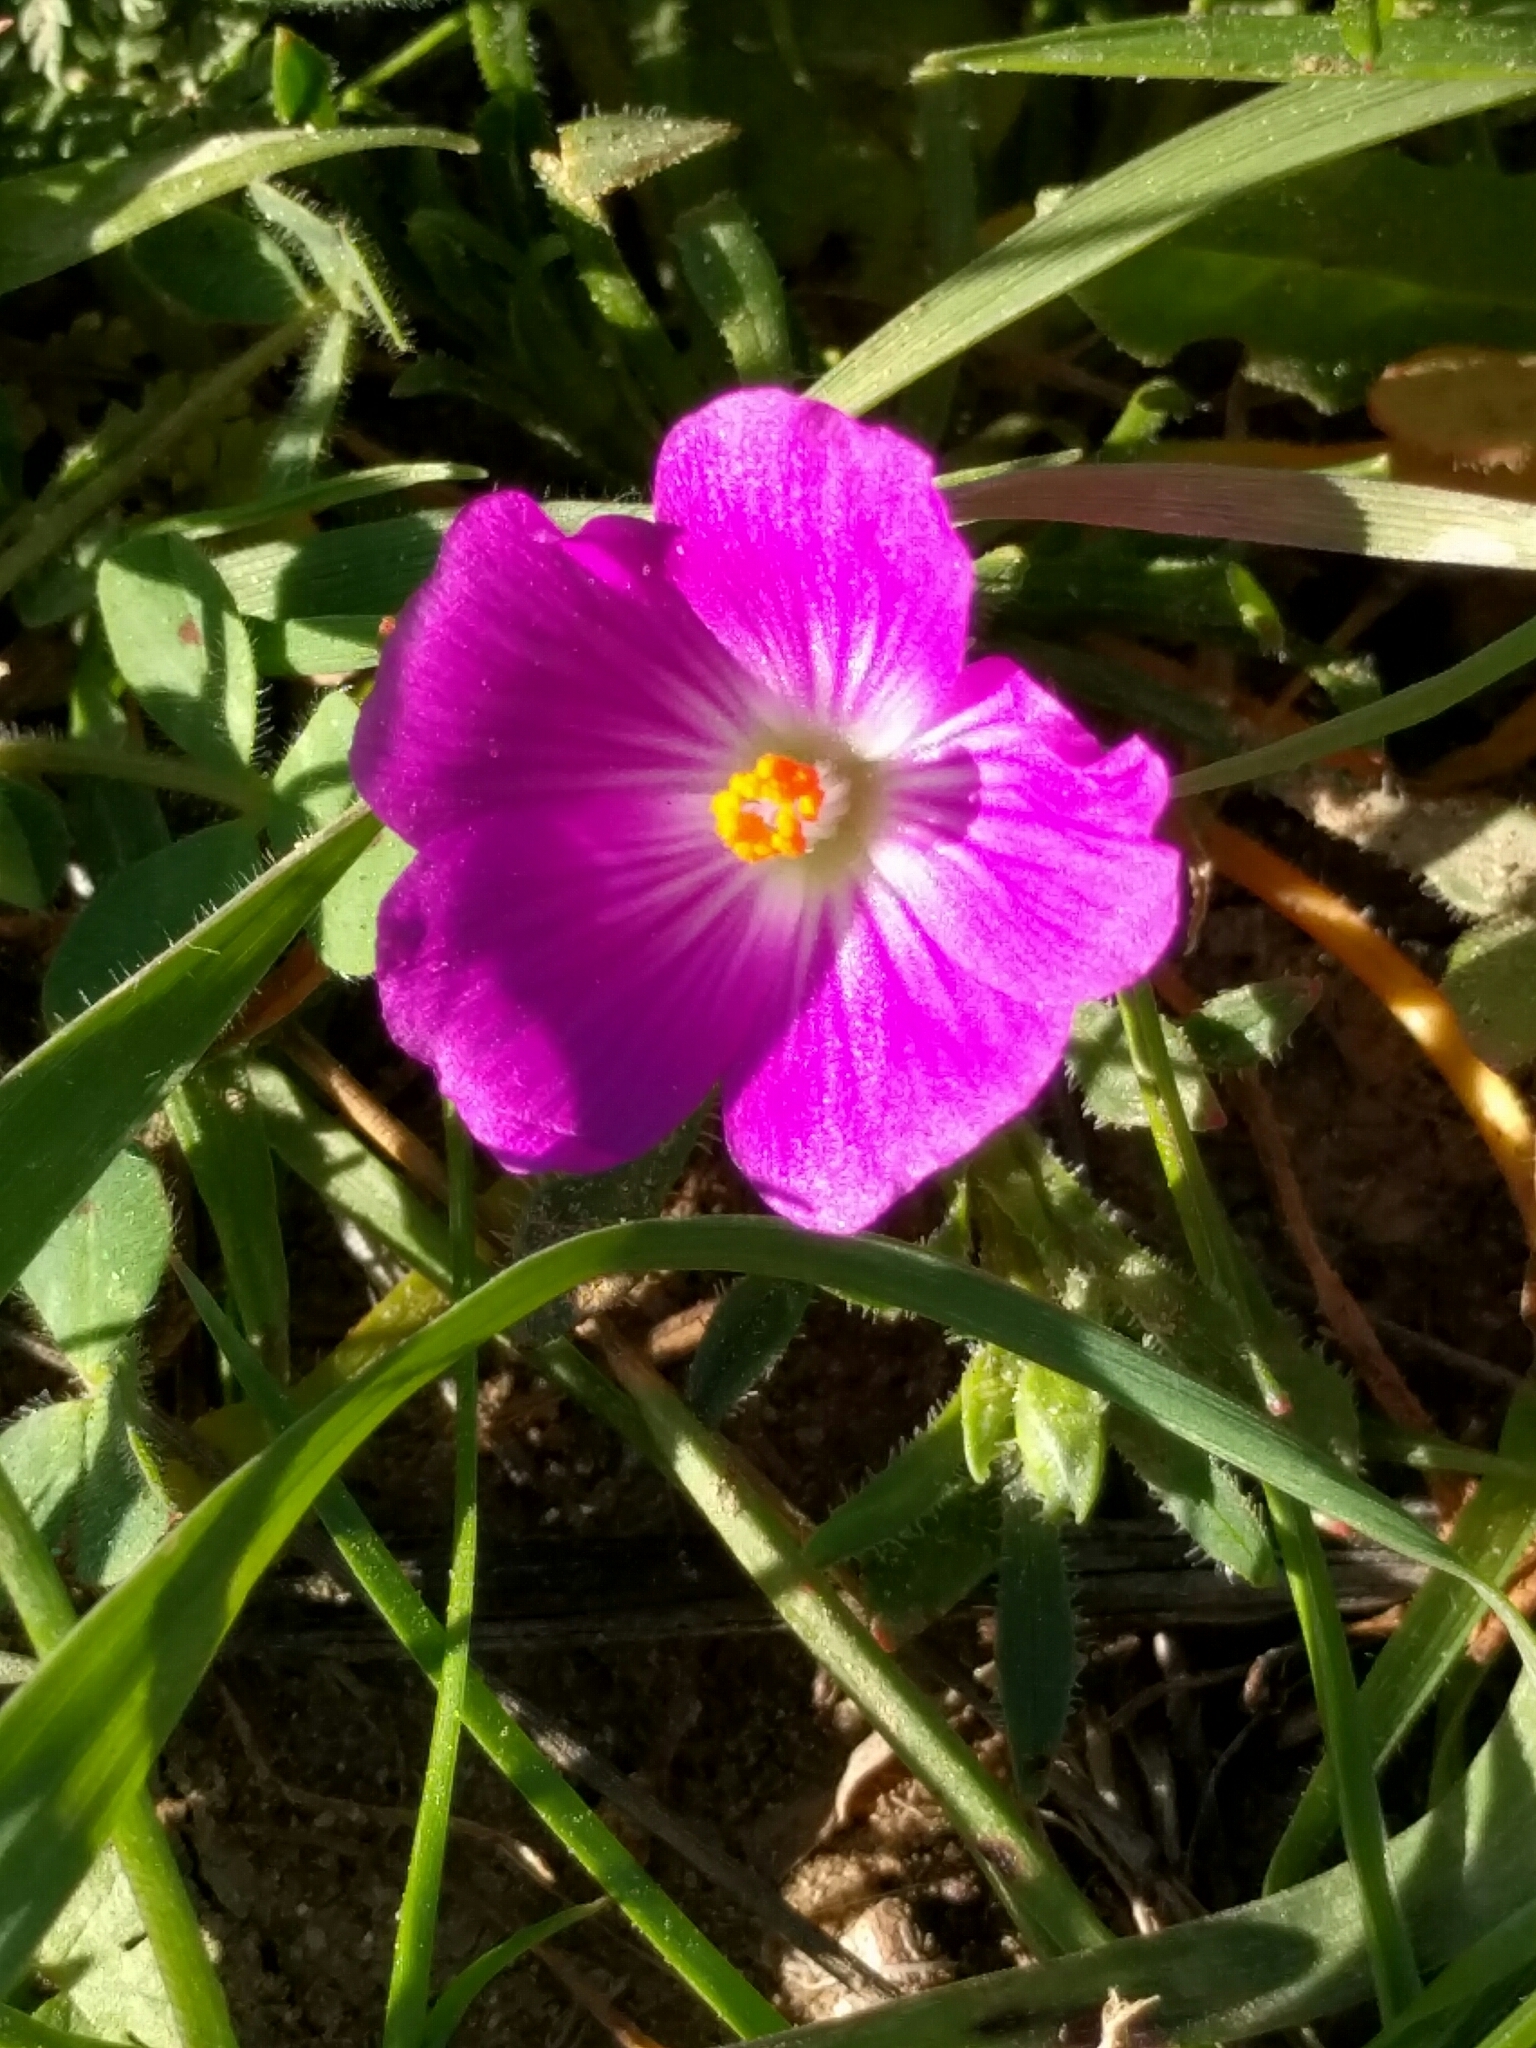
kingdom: Plantae
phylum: Tracheophyta
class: Magnoliopsida
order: Caryophyllales
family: Montiaceae
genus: Calandrinia
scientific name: Calandrinia menziesii
